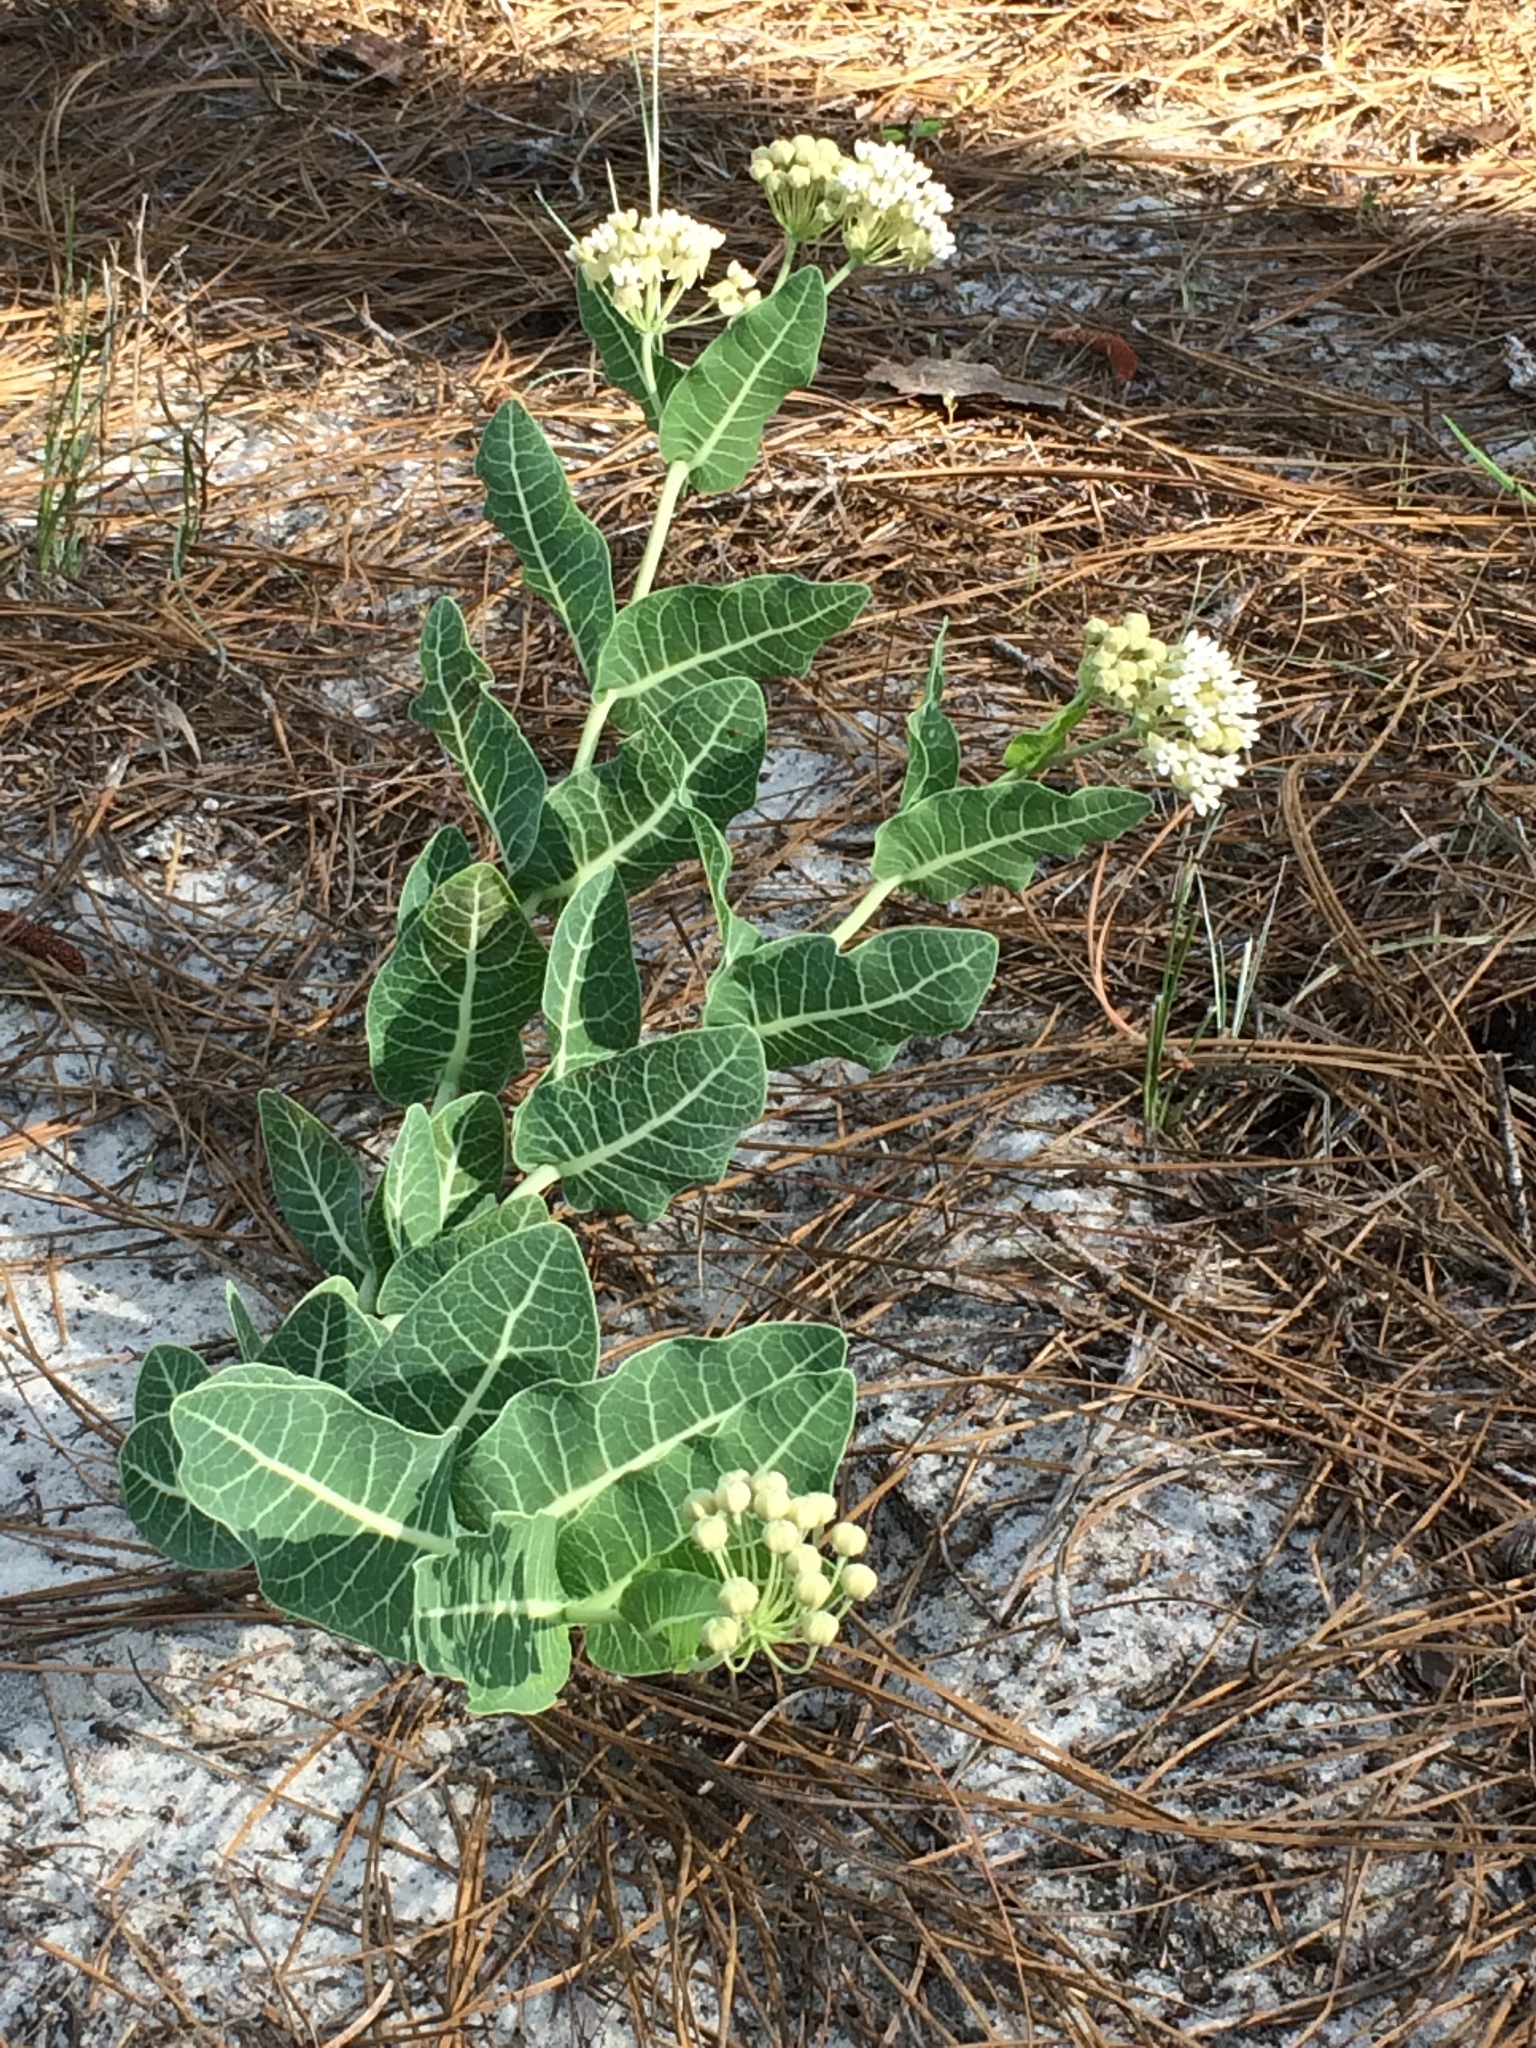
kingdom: Plantae
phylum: Tracheophyta
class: Magnoliopsida
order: Gentianales
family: Apocynaceae
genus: Asclepias
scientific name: Asclepias humistrata
